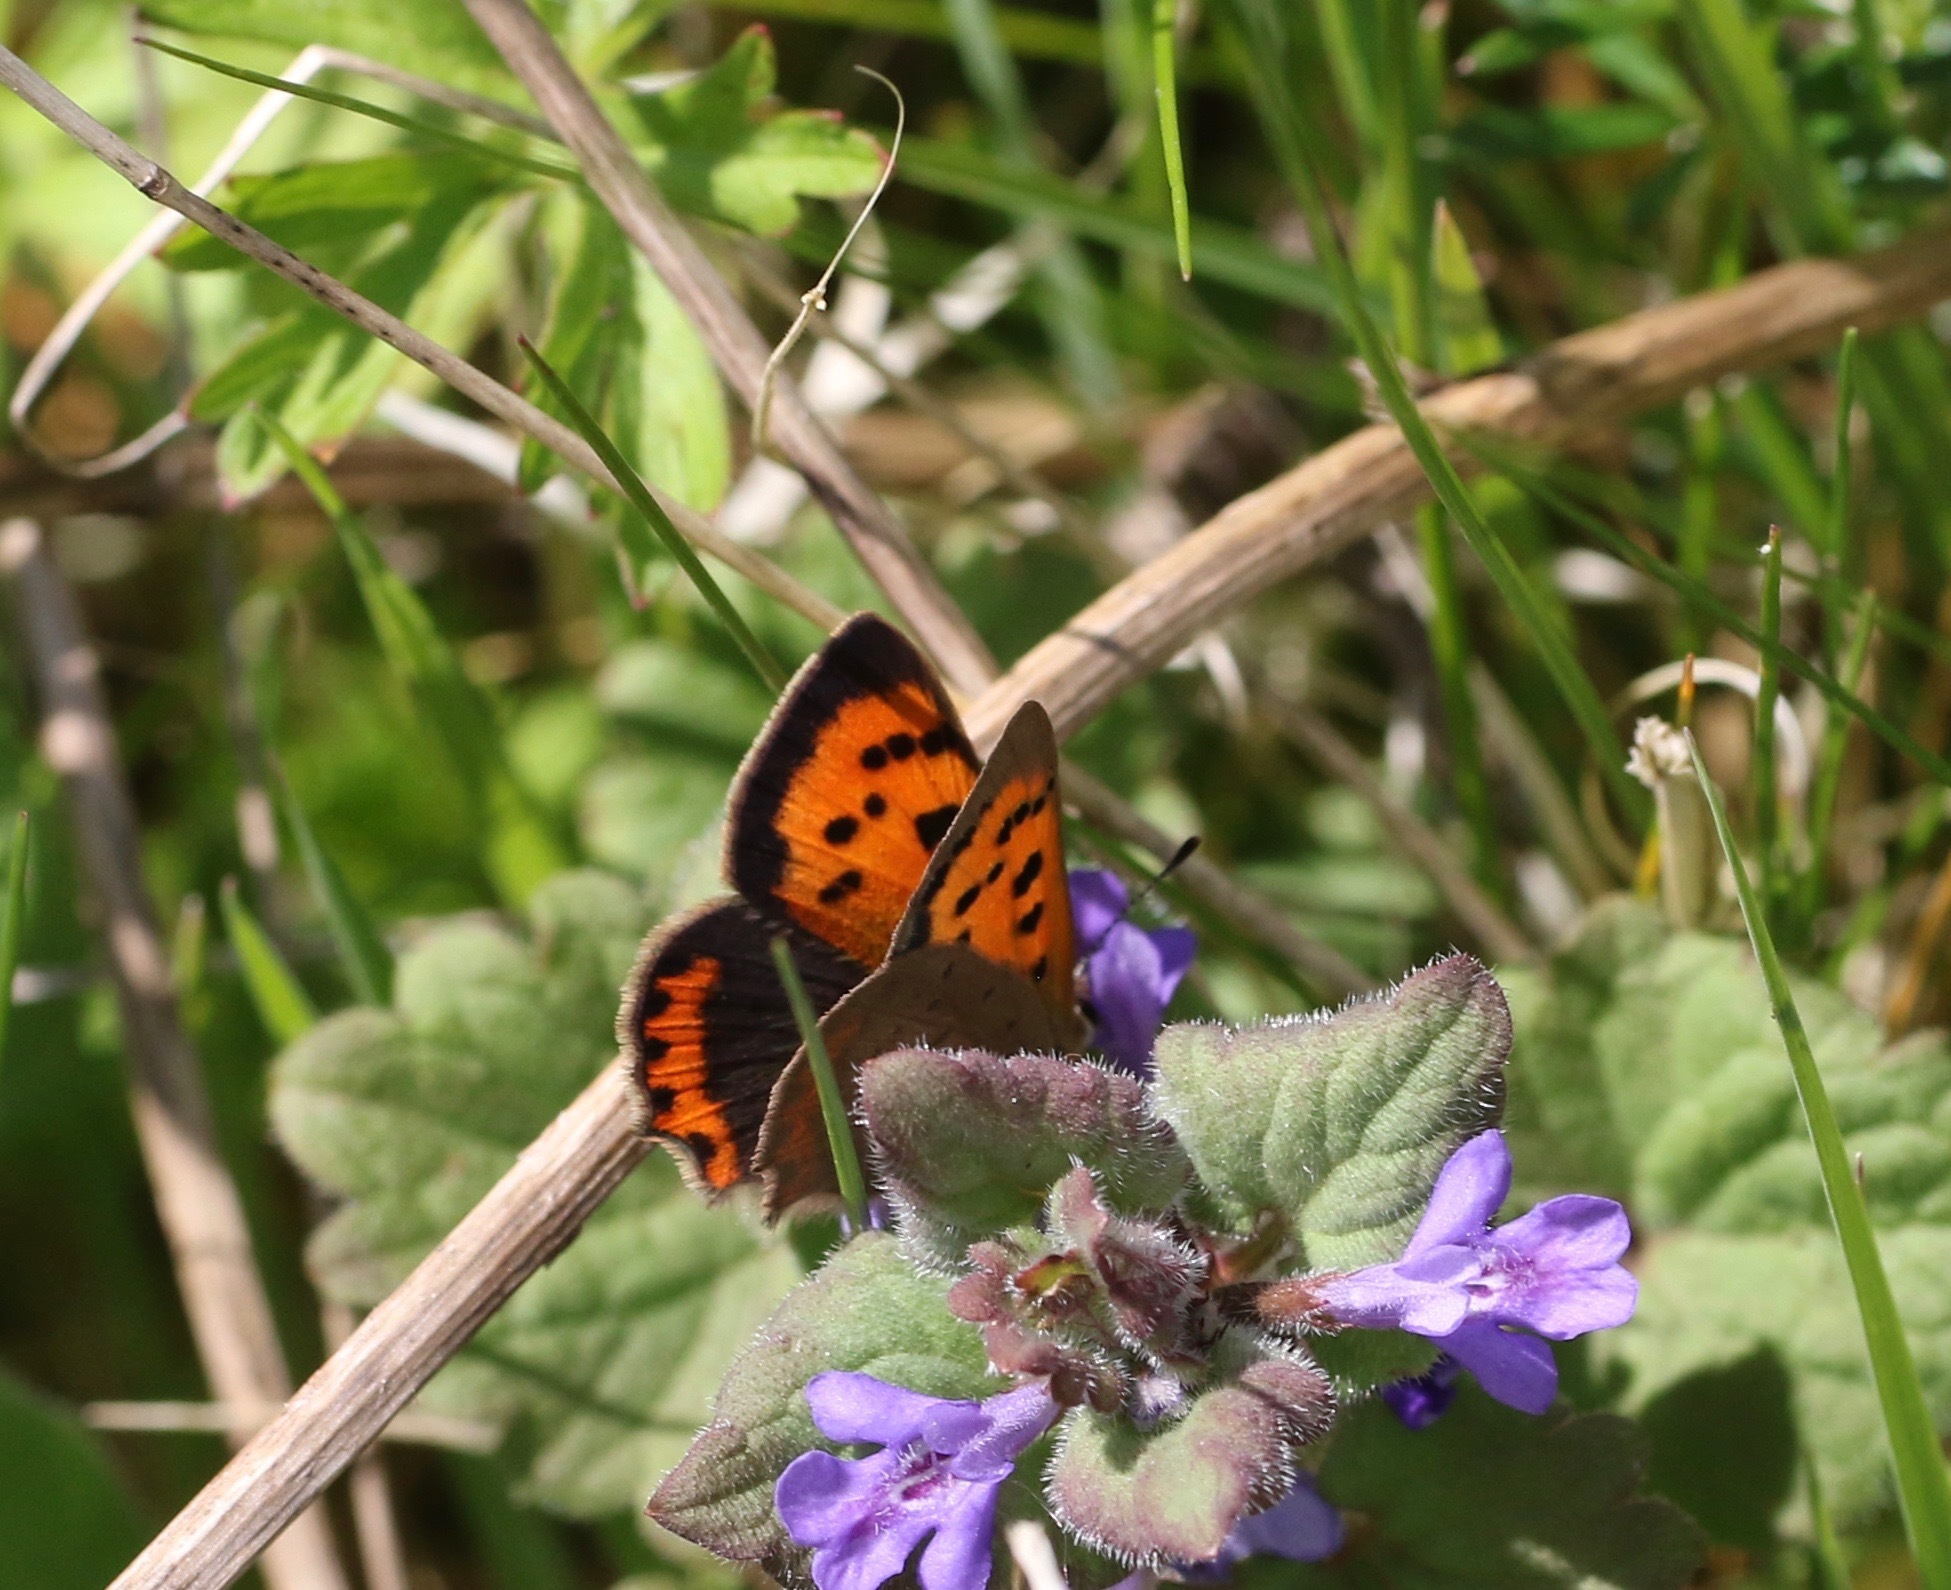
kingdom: Animalia
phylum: Arthropoda
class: Insecta
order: Lepidoptera
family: Lycaenidae
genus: Lycaena
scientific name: Lycaena phlaeas
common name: Small copper
